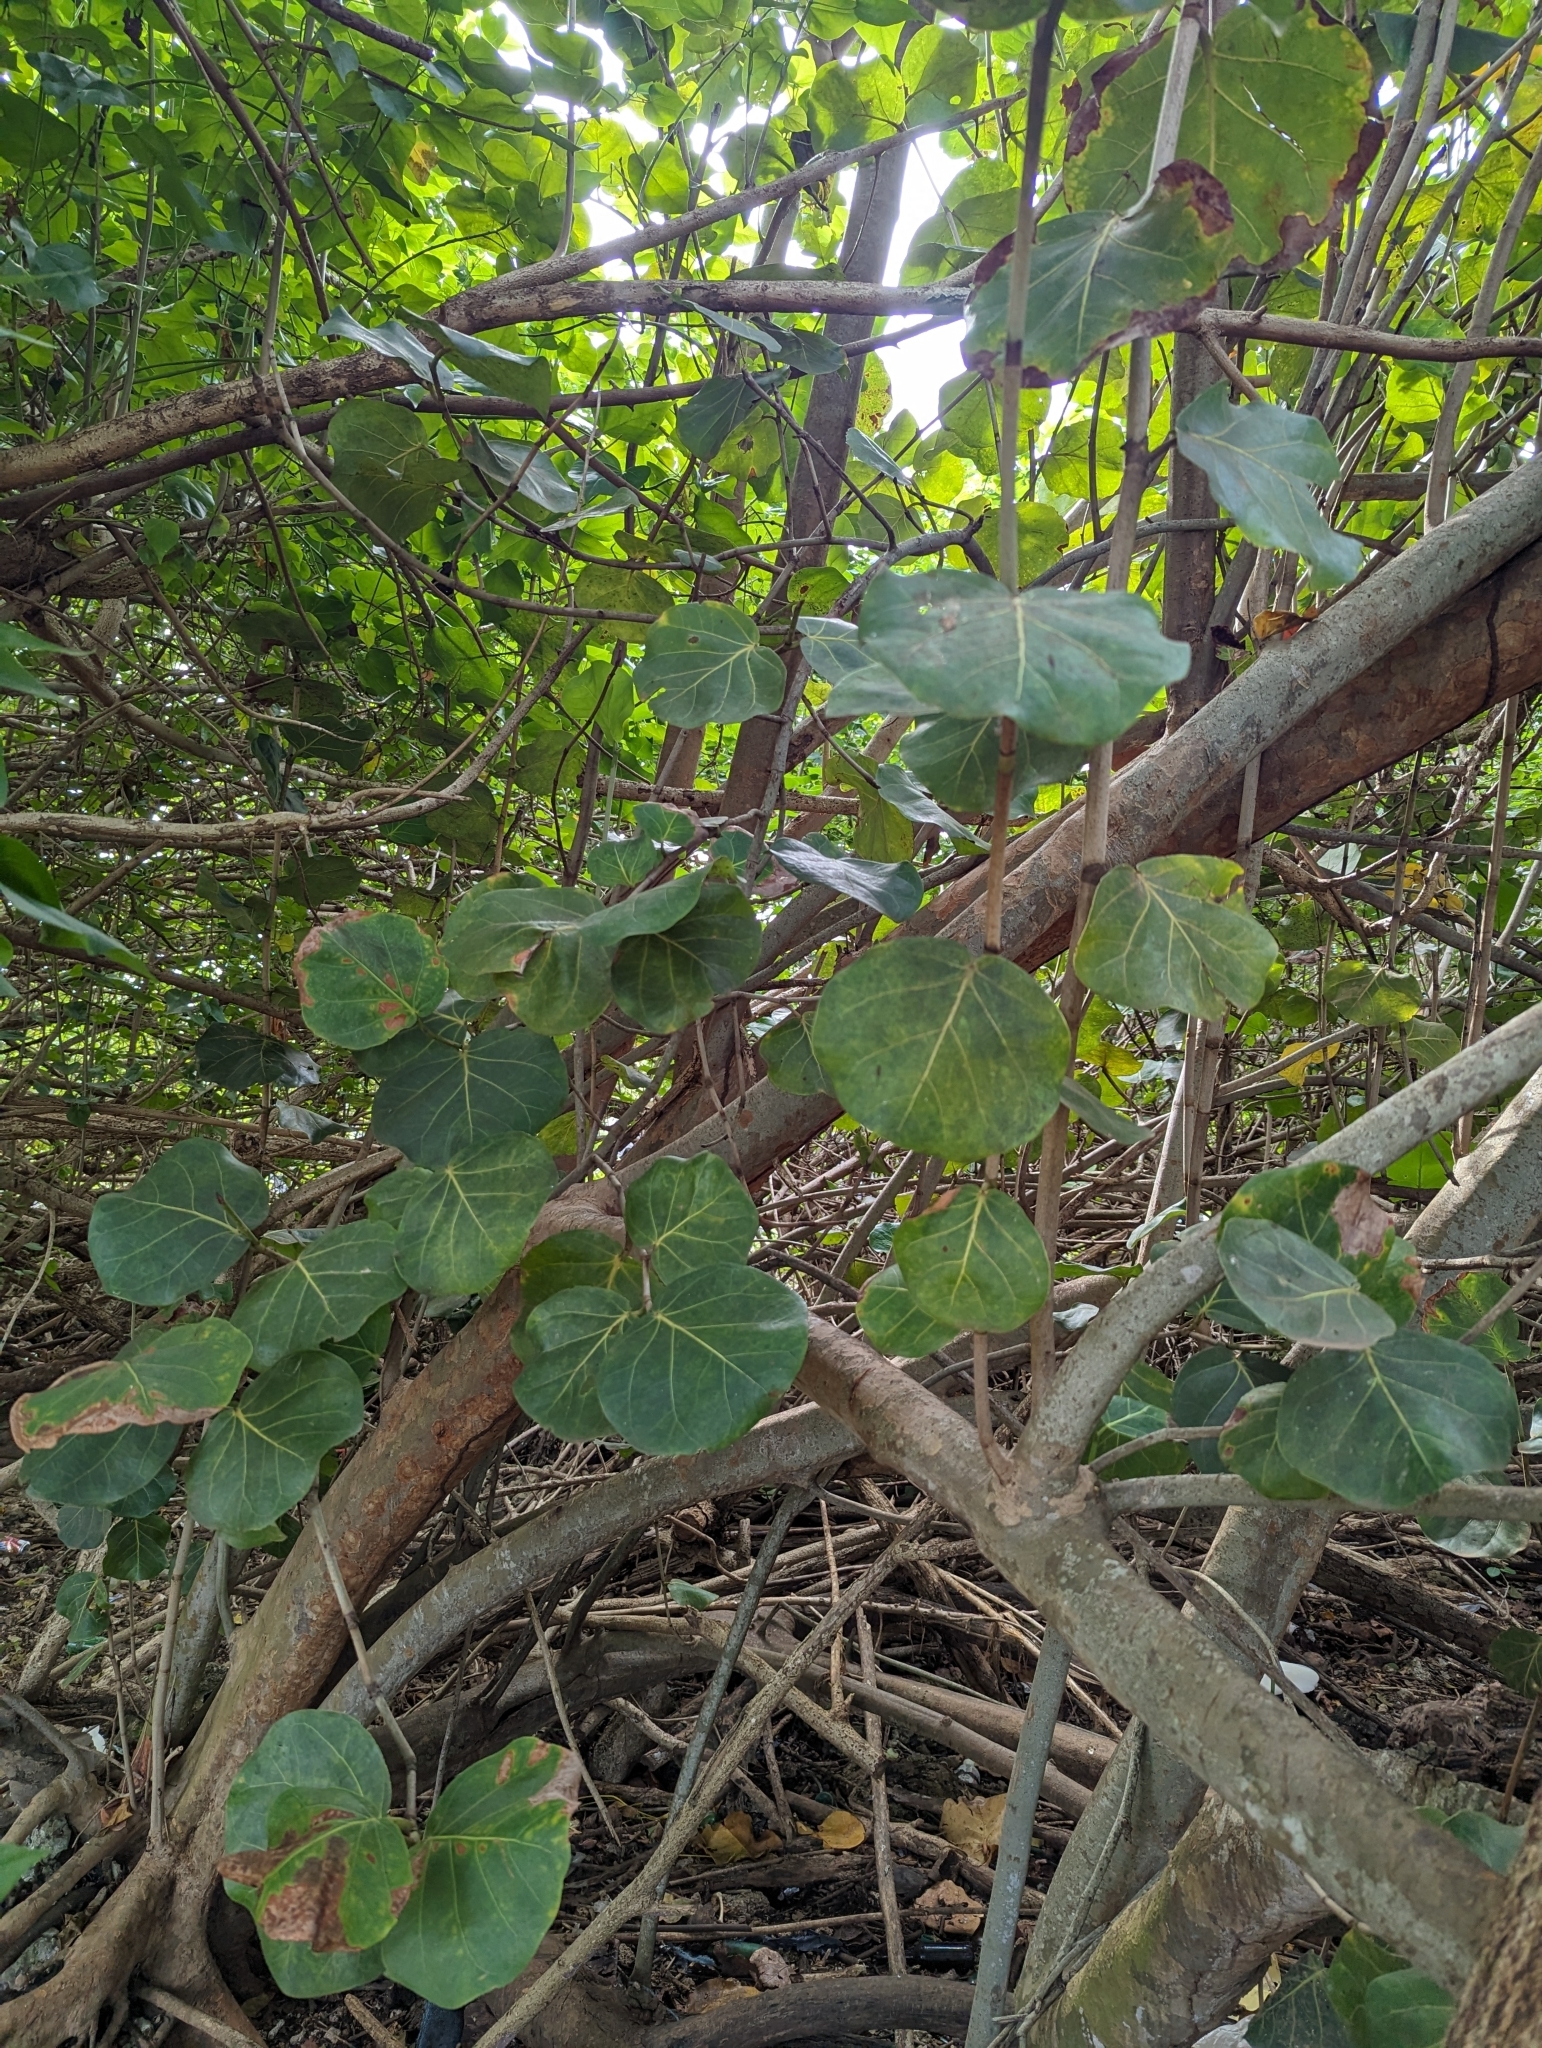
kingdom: Plantae
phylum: Tracheophyta
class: Magnoliopsida
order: Caryophyllales
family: Polygonaceae
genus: Coccoloba
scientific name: Coccoloba uvifera
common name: Seagrape
